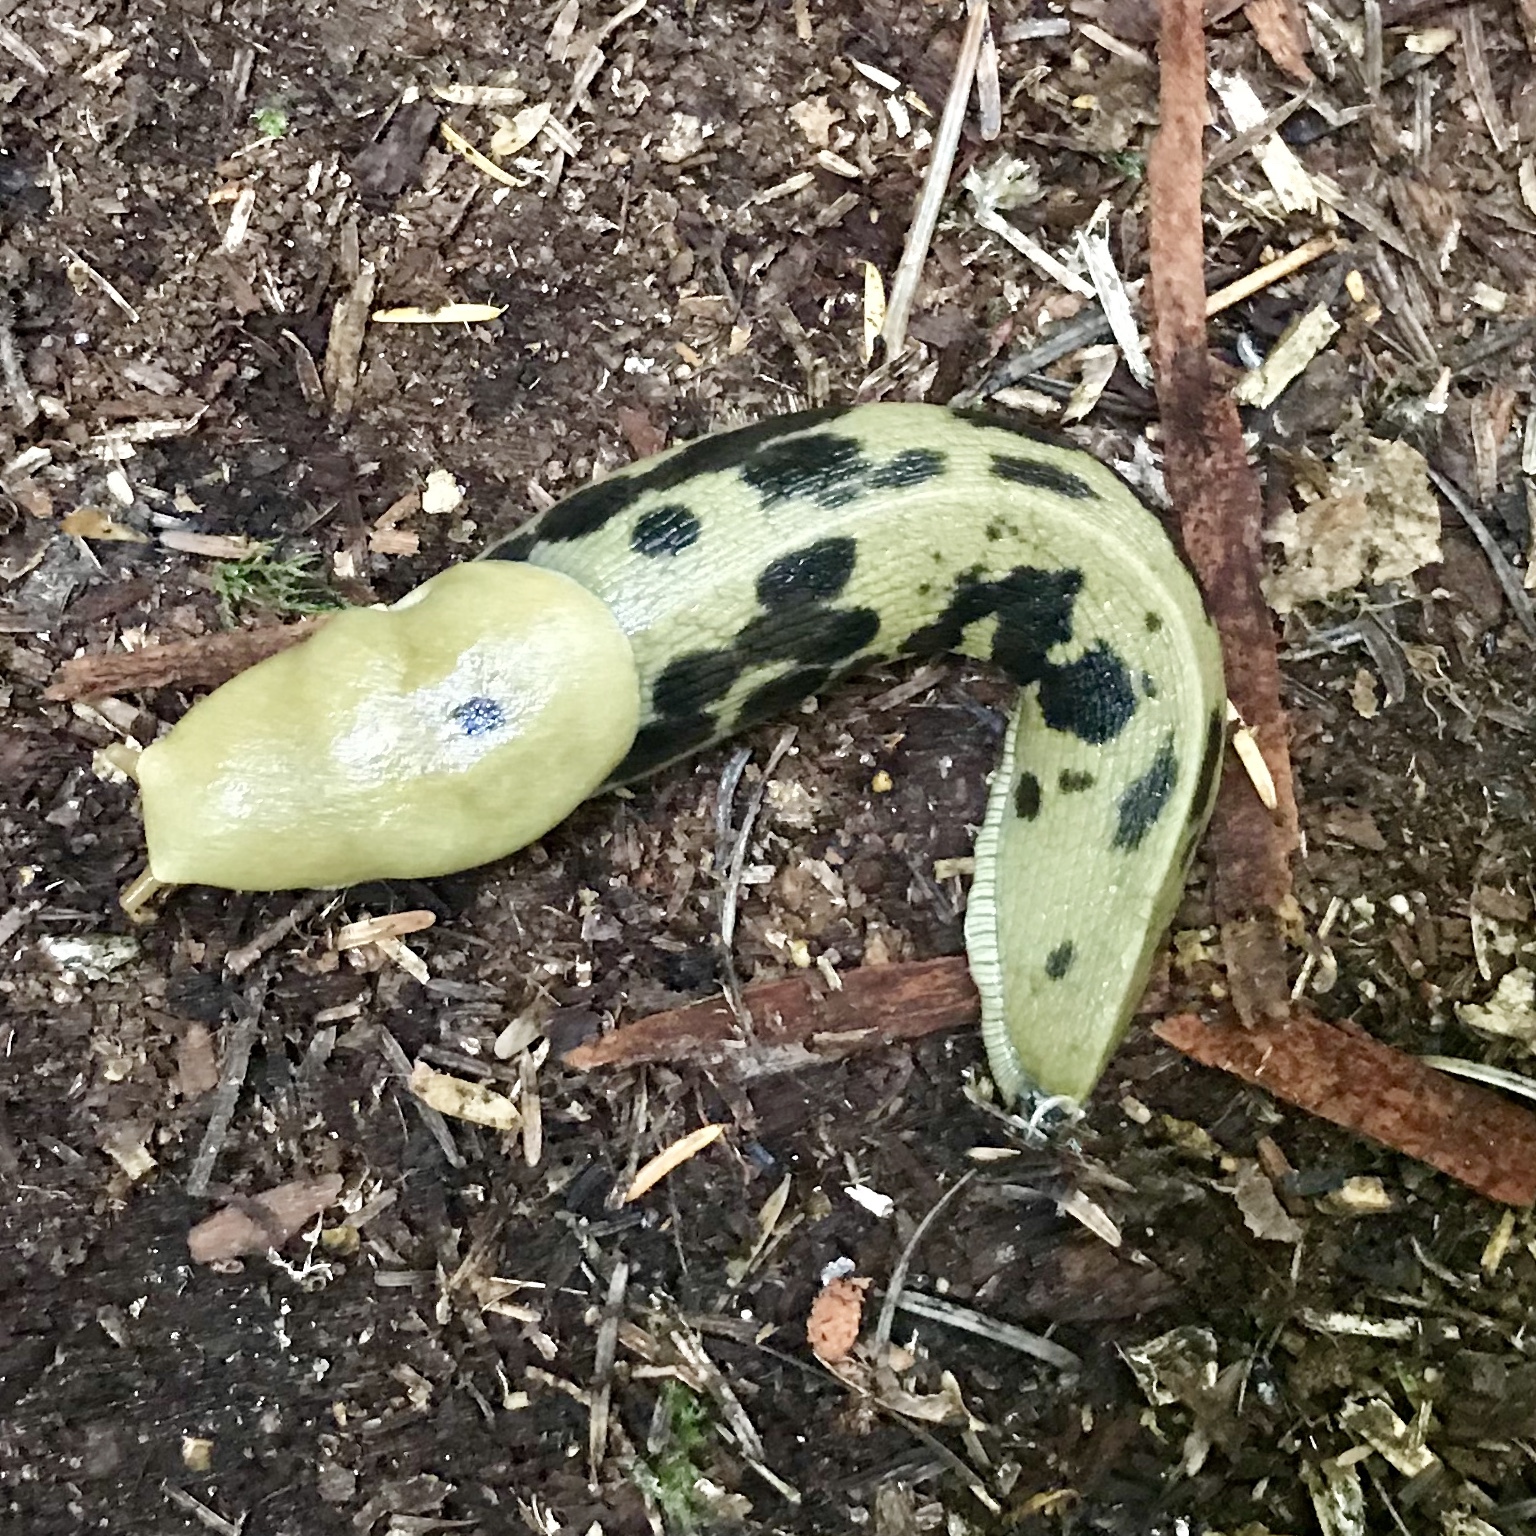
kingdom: Animalia
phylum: Mollusca
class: Gastropoda
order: Stylommatophora
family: Ariolimacidae
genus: Ariolimax
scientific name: Ariolimax columbianus
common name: Pacific banana slug
